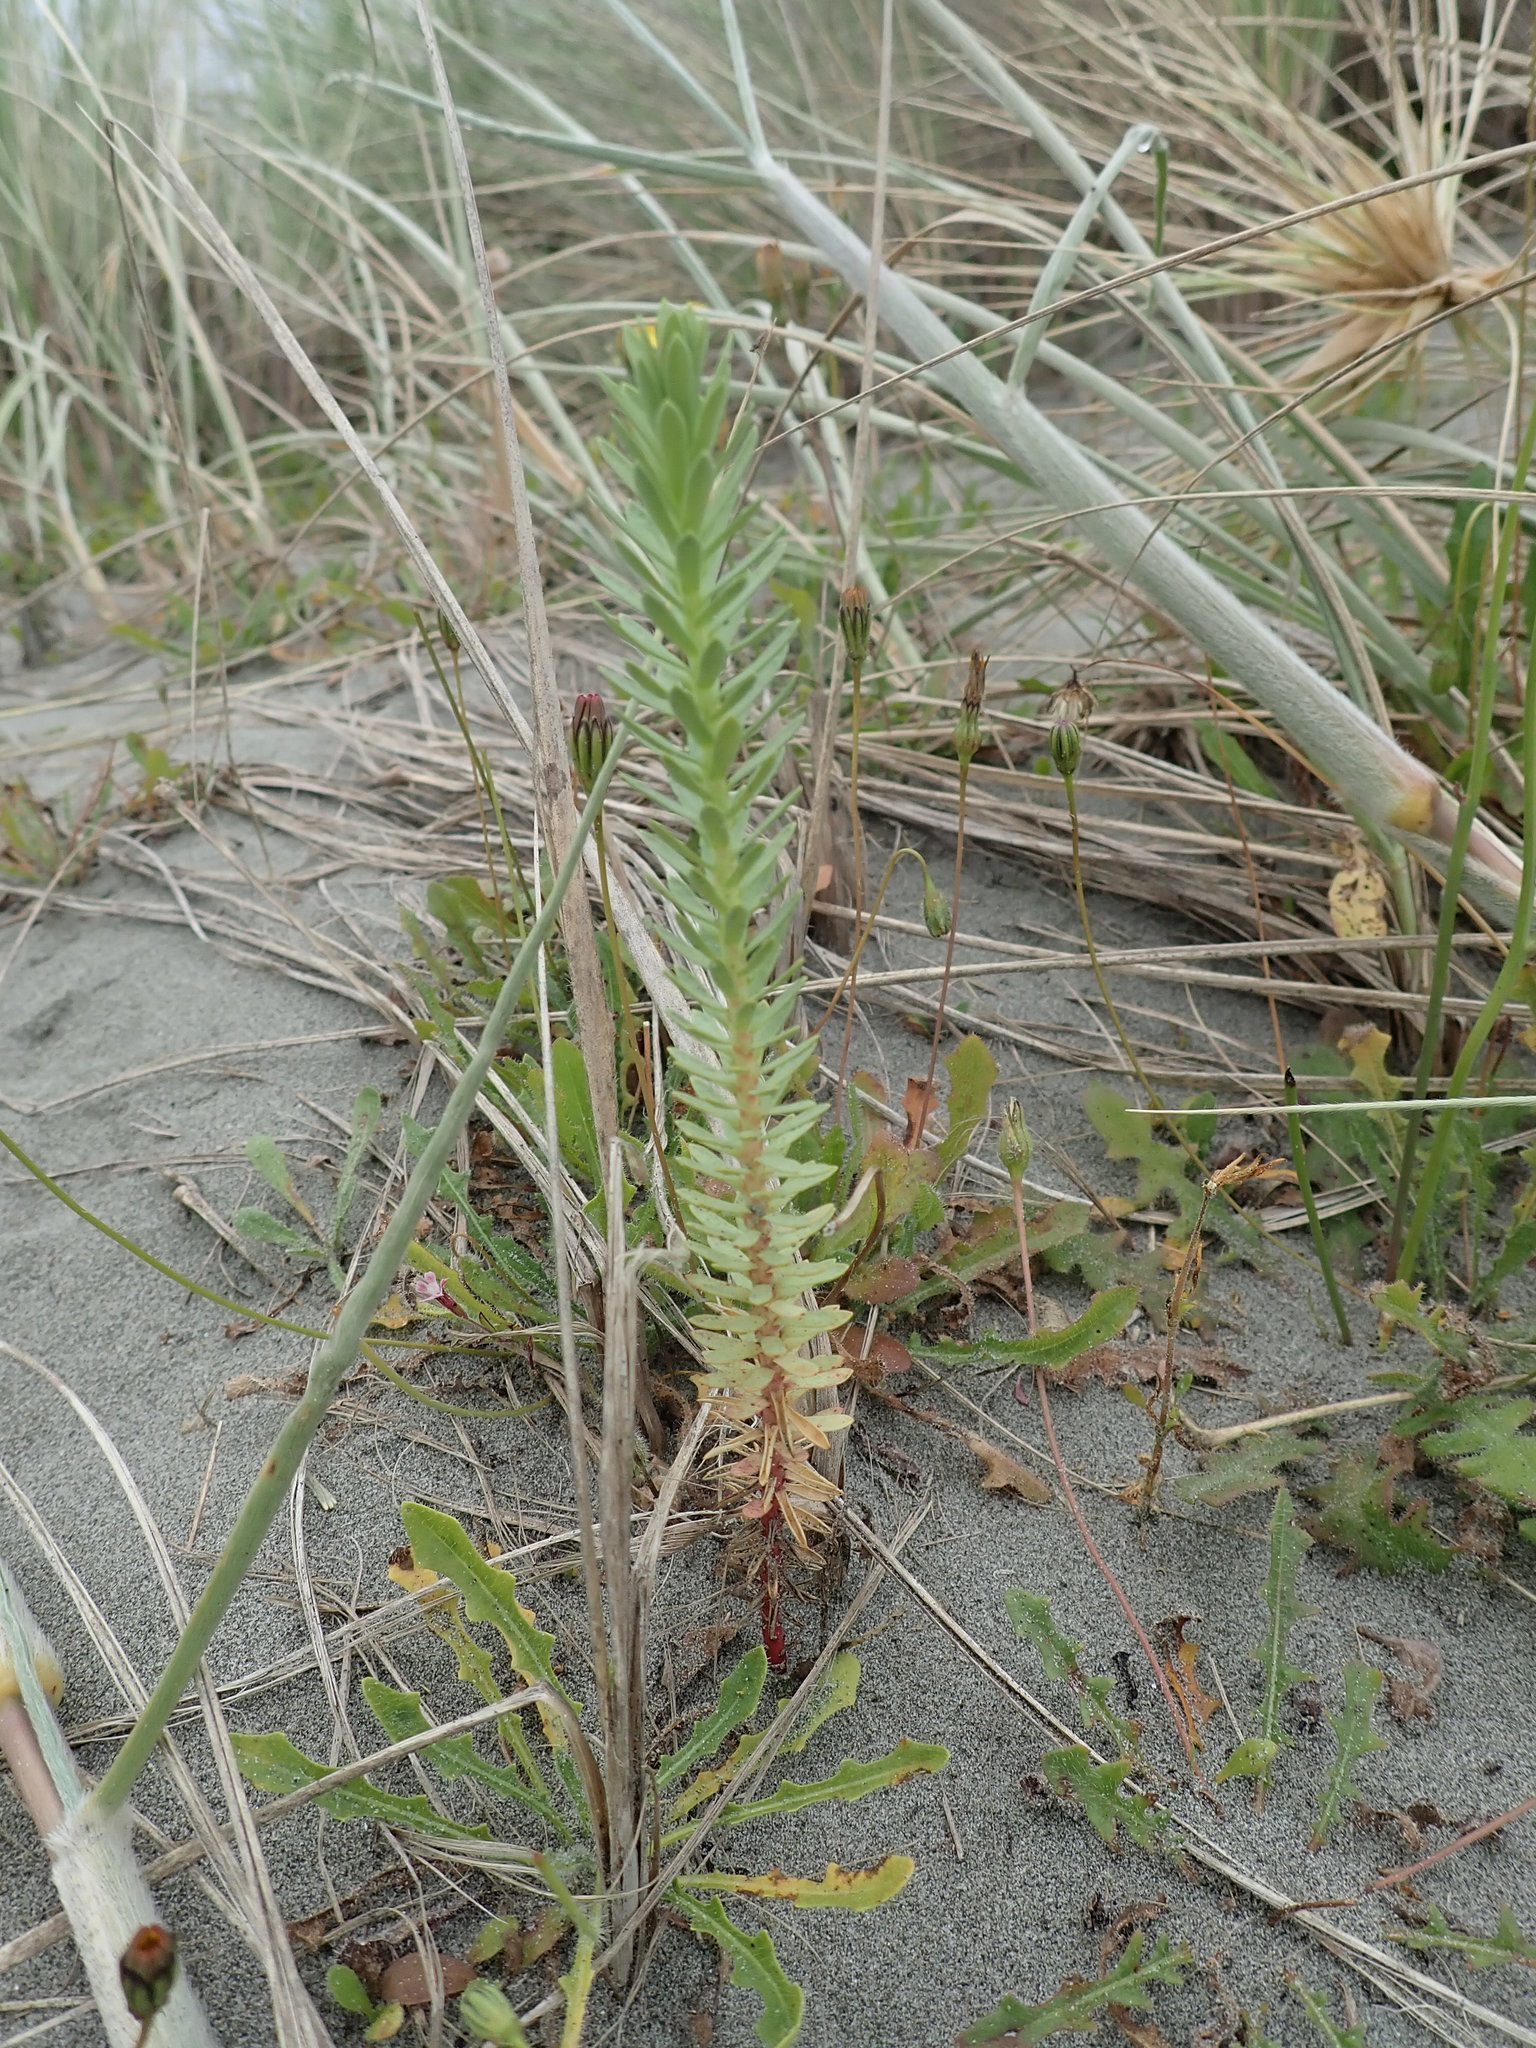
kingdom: Plantae
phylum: Tracheophyta
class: Magnoliopsida
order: Malpighiales
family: Euphorbiaceae
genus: Euphorbia
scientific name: Euphorbia paralias
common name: Sea spurge
